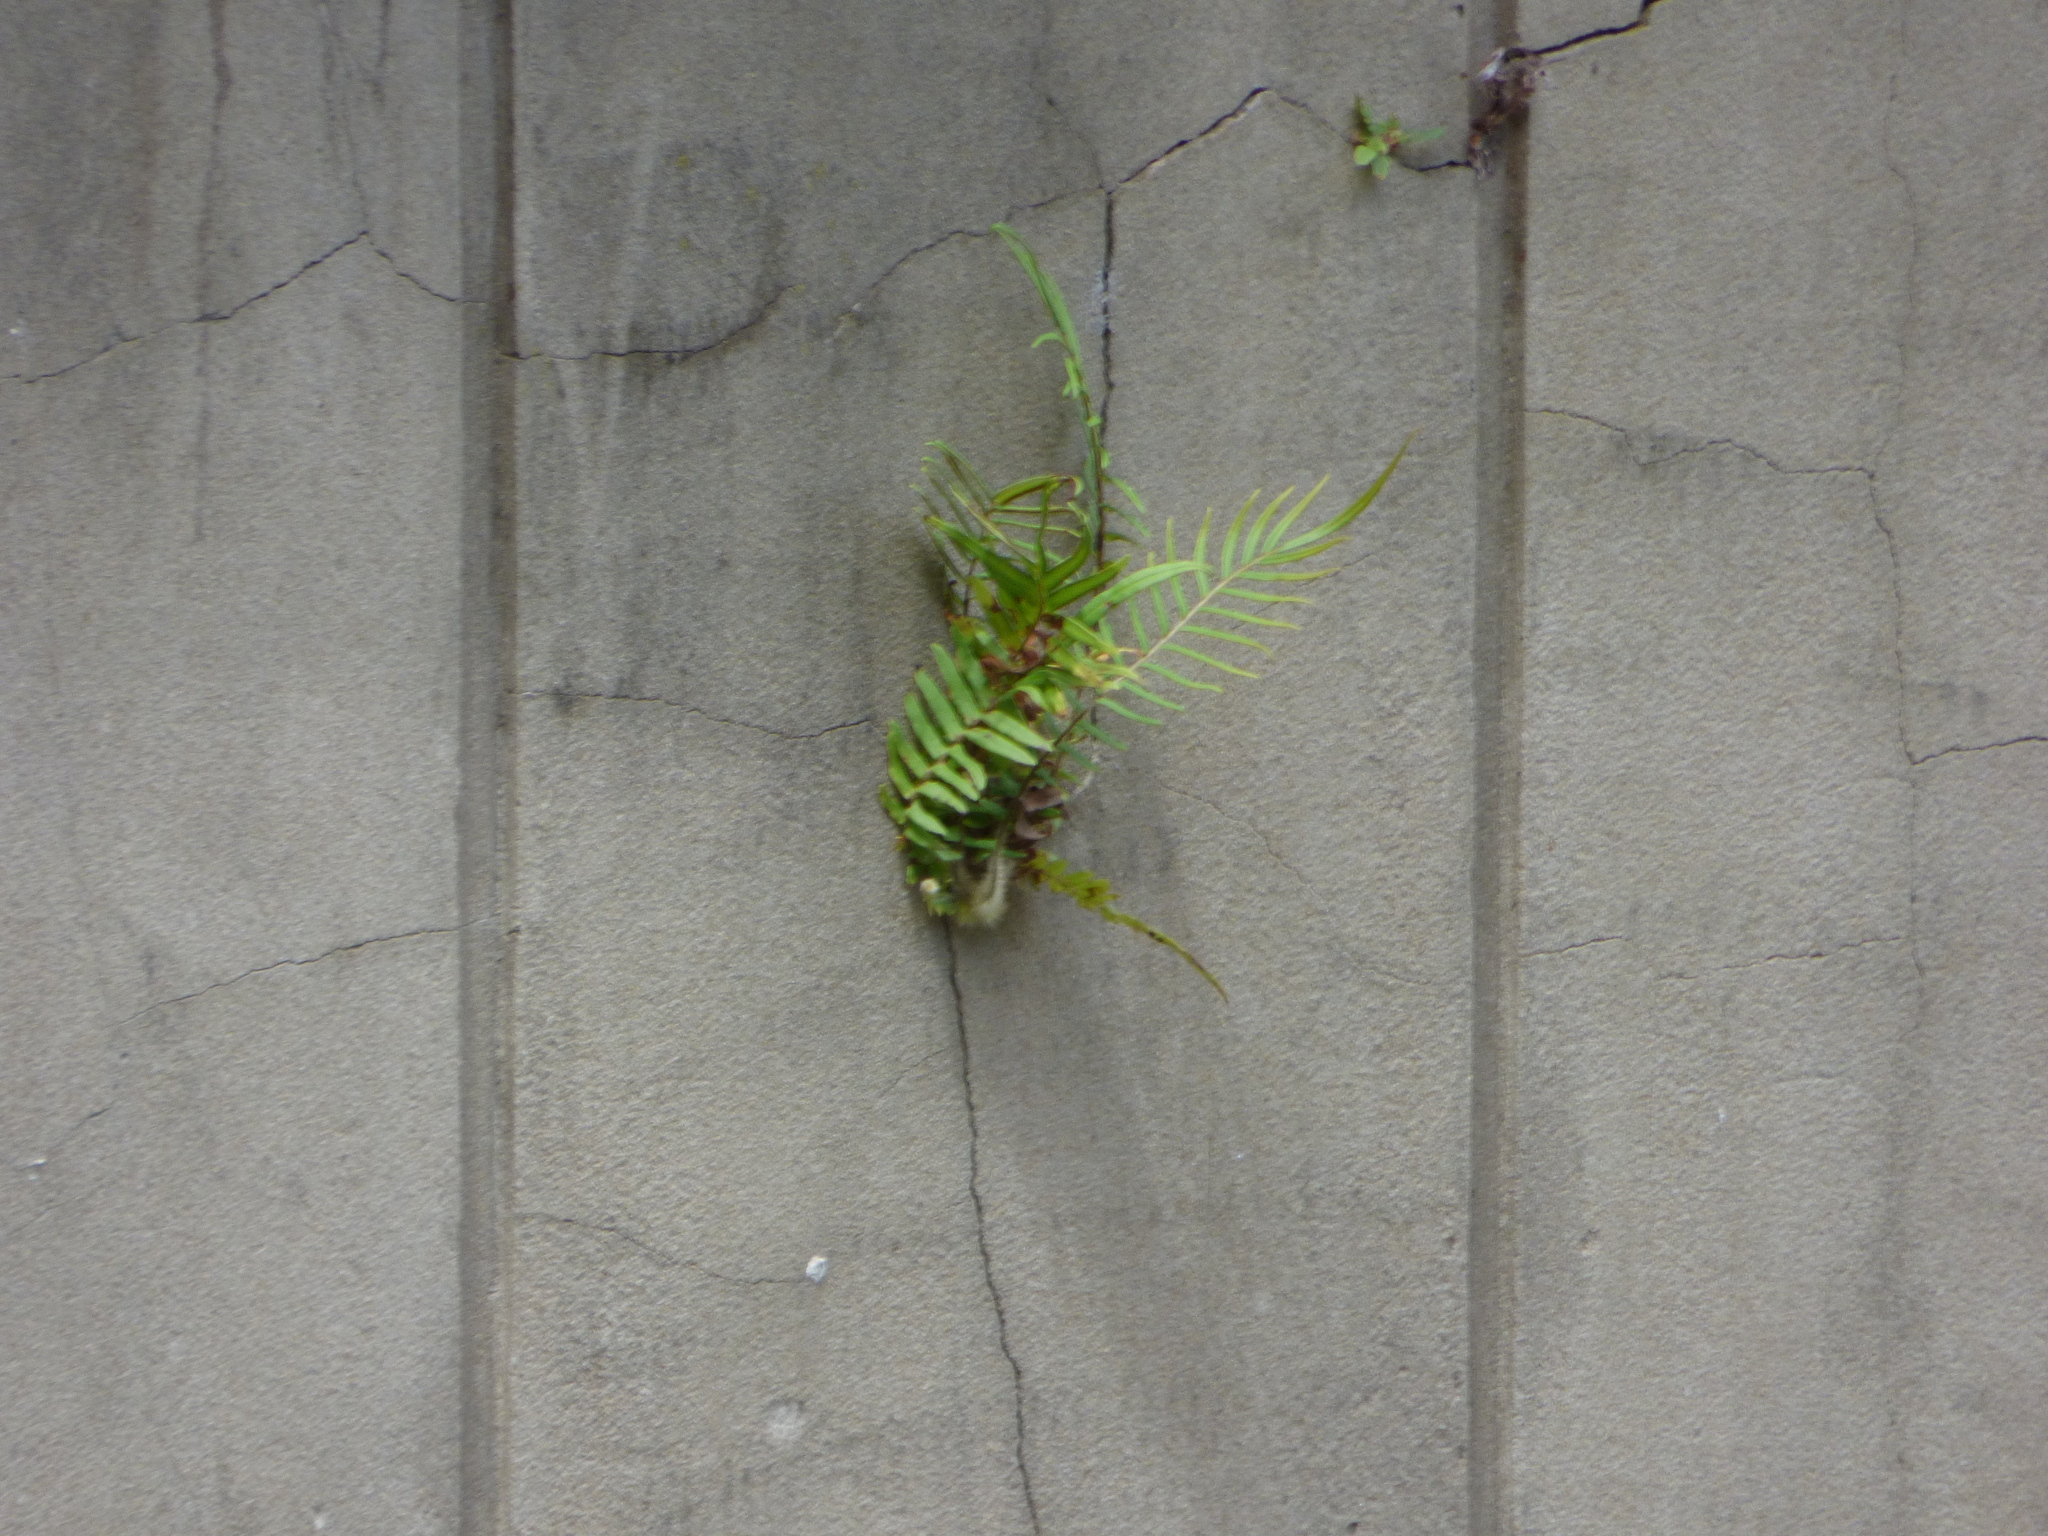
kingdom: Plantae
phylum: Tracheophyta
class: Polypodiopsida
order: Polypodiales
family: Pteridaceae
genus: Pteris
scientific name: Pteris vittata
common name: Ladder brake
